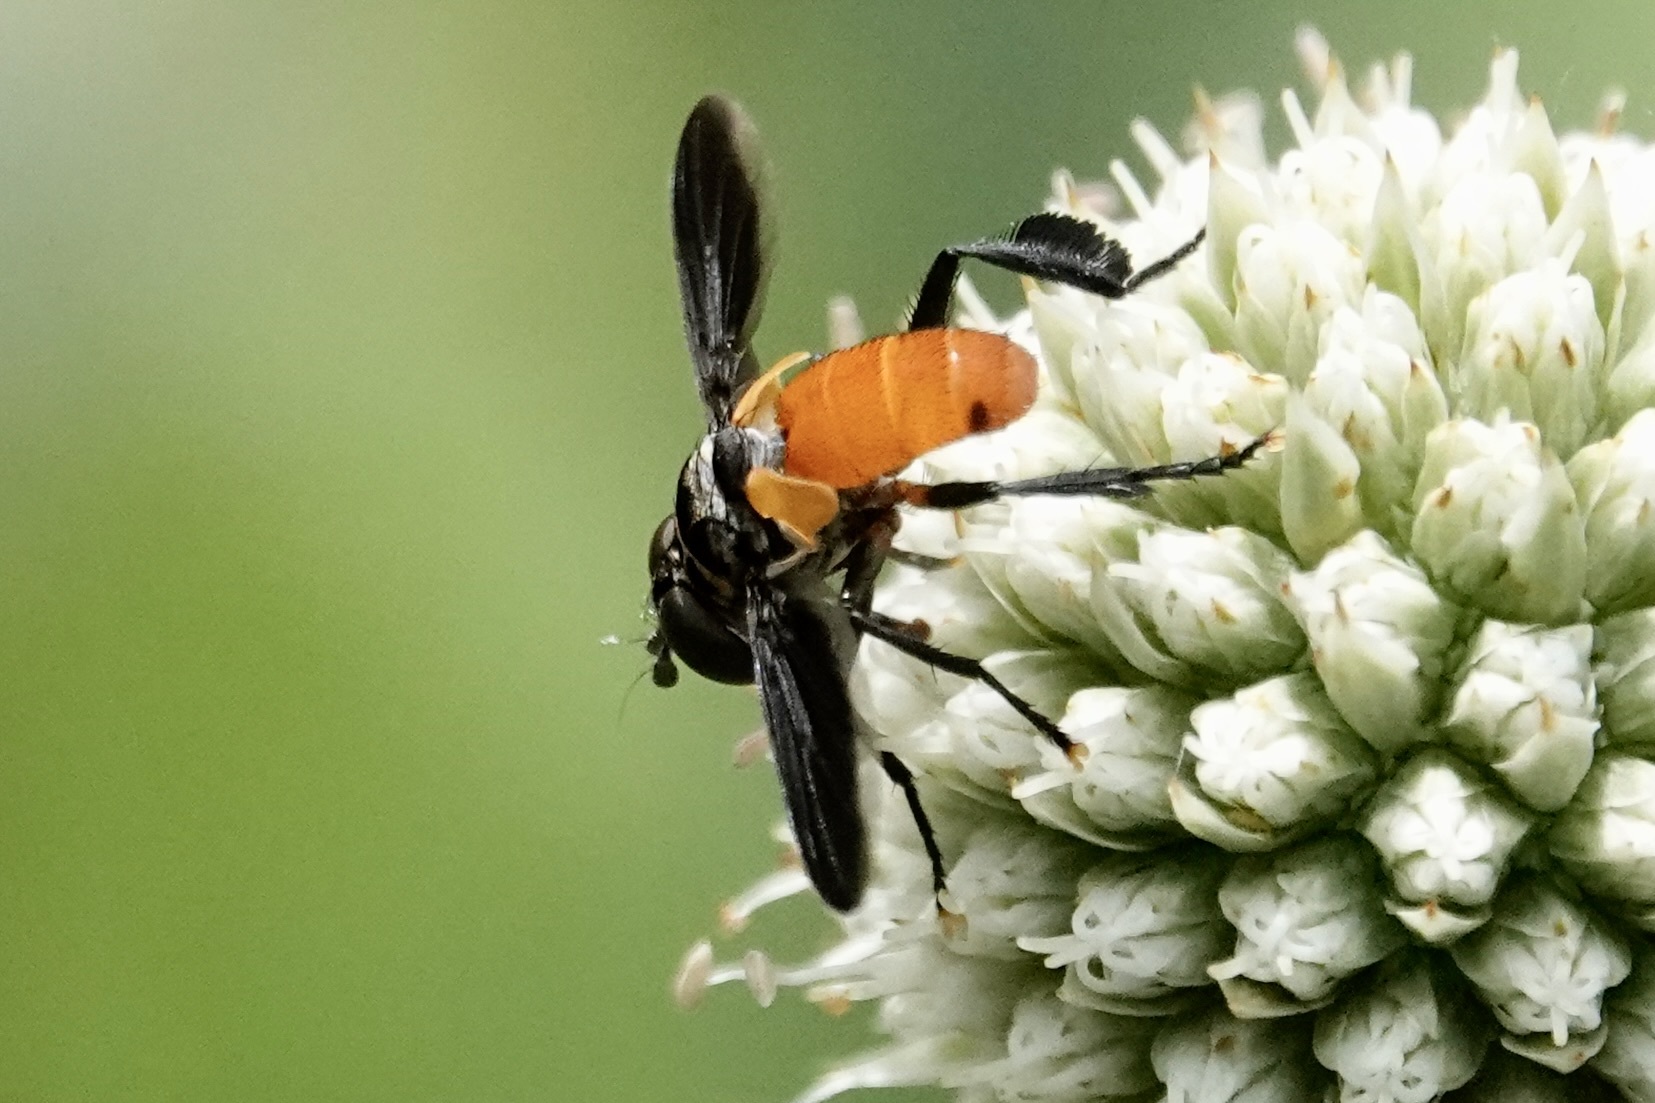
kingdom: Animalia
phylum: Arthropoda
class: Insecta
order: Diptera
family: Tachinidae
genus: Trichopoda
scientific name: Trichopoda pennipes
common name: Tachinid fly
